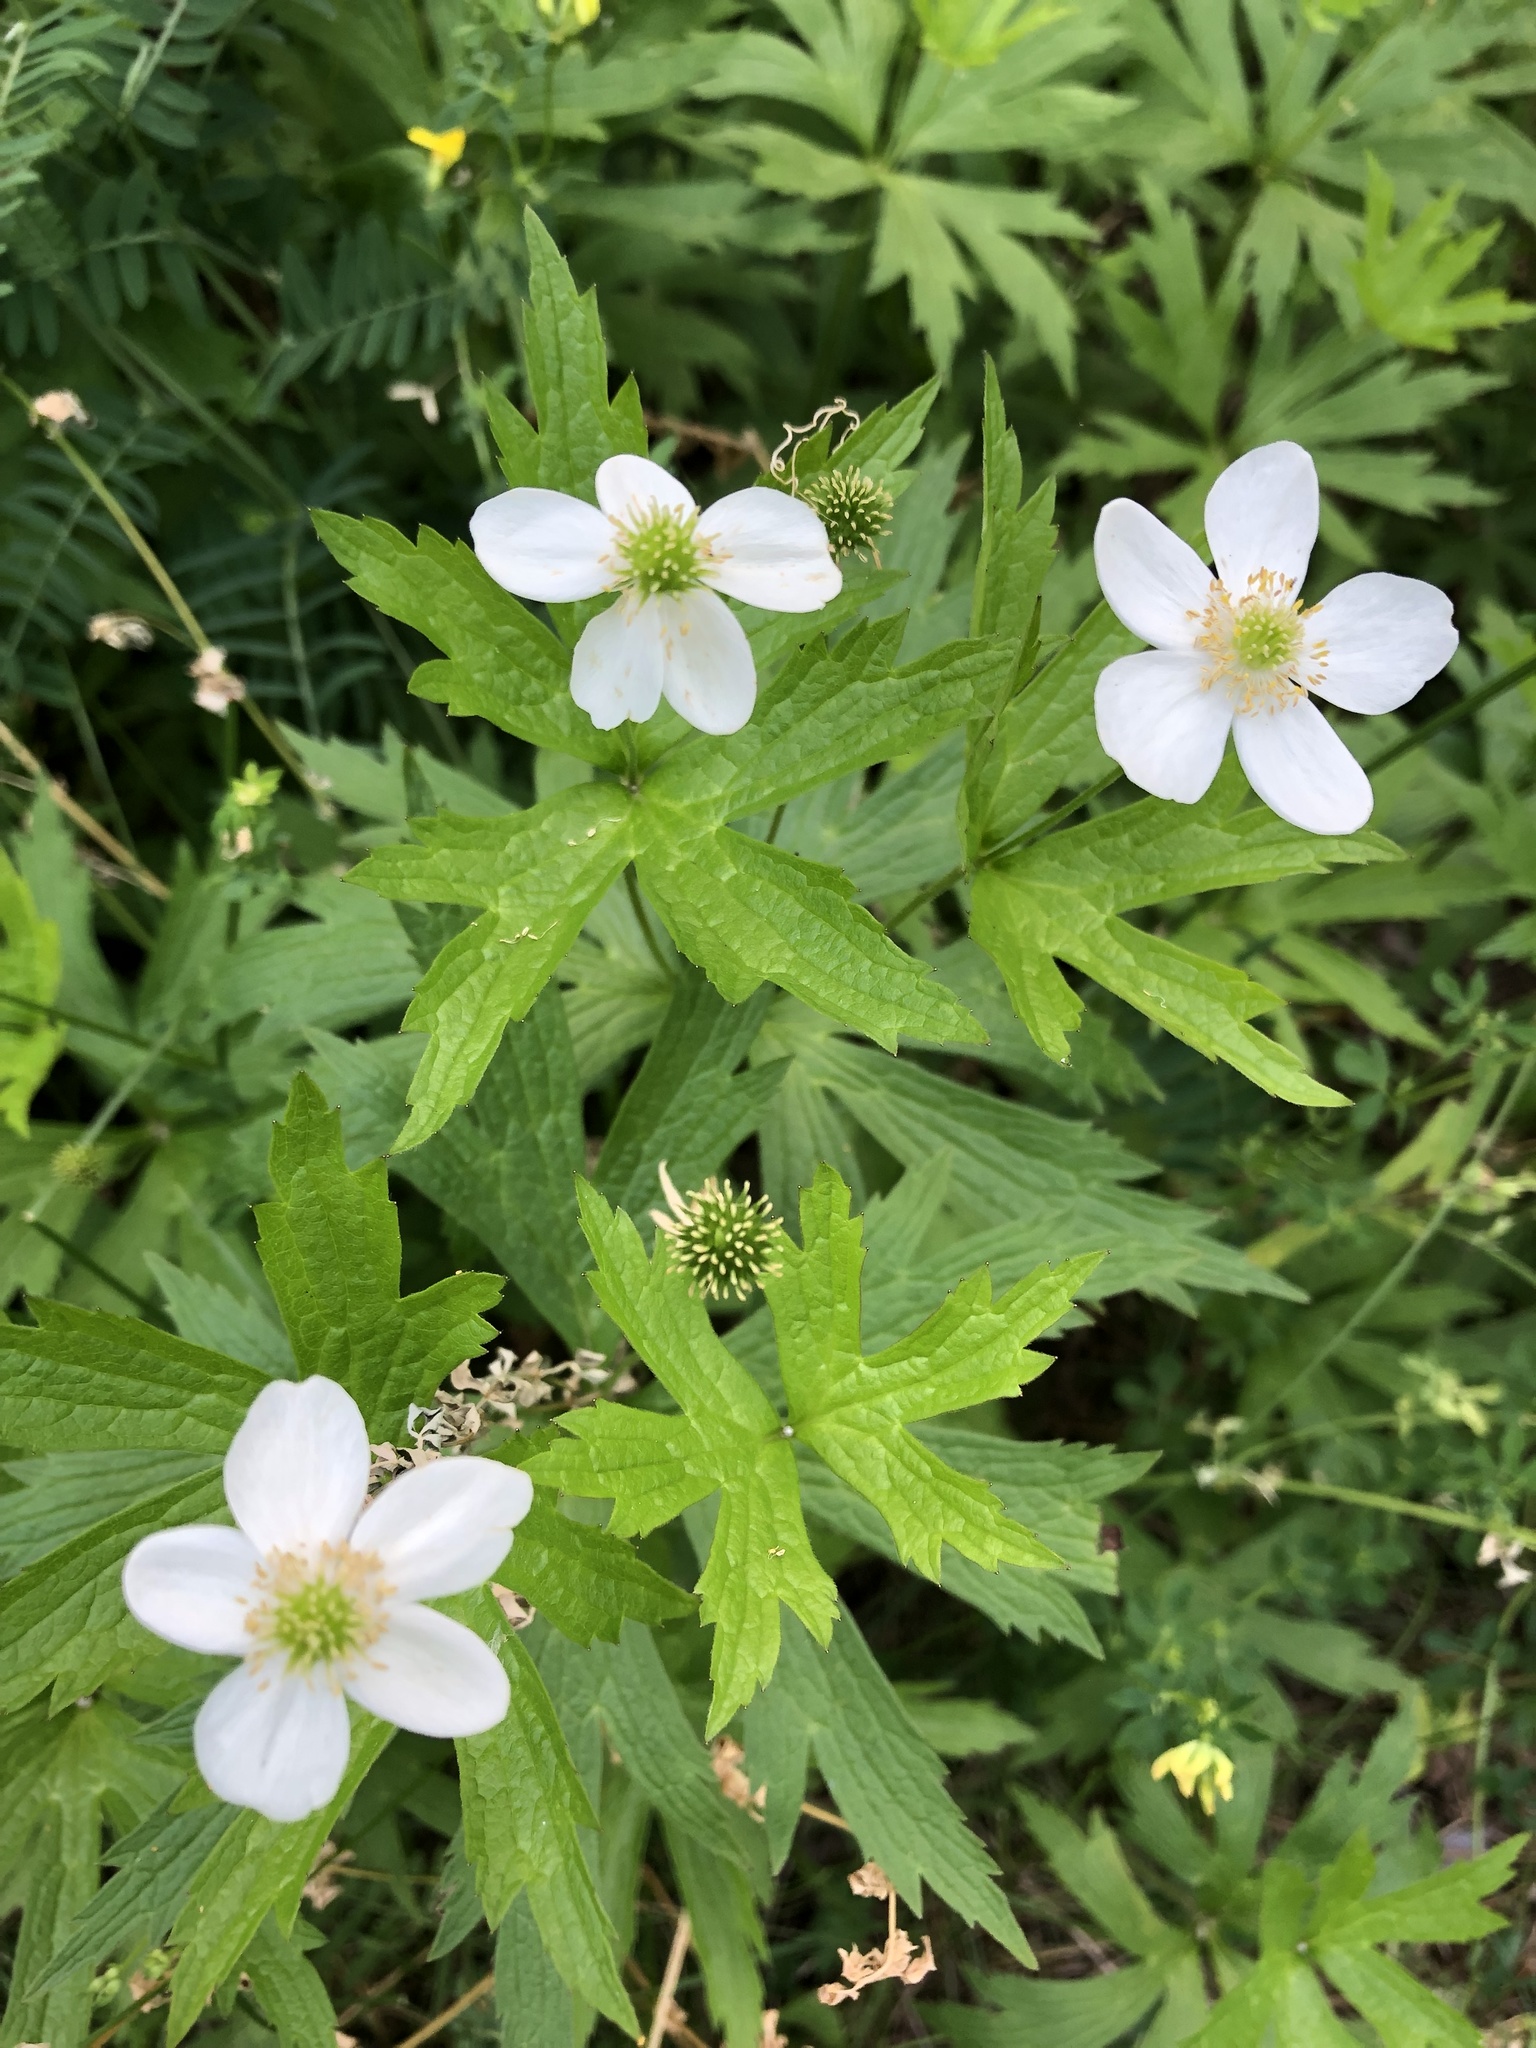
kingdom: Plantae
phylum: Tracheophyta
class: Magnoliopsida
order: Ranunculales
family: Ranunculaceae
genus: Anemonastrum
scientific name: Anemonastrum canadense
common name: Canada anemone
